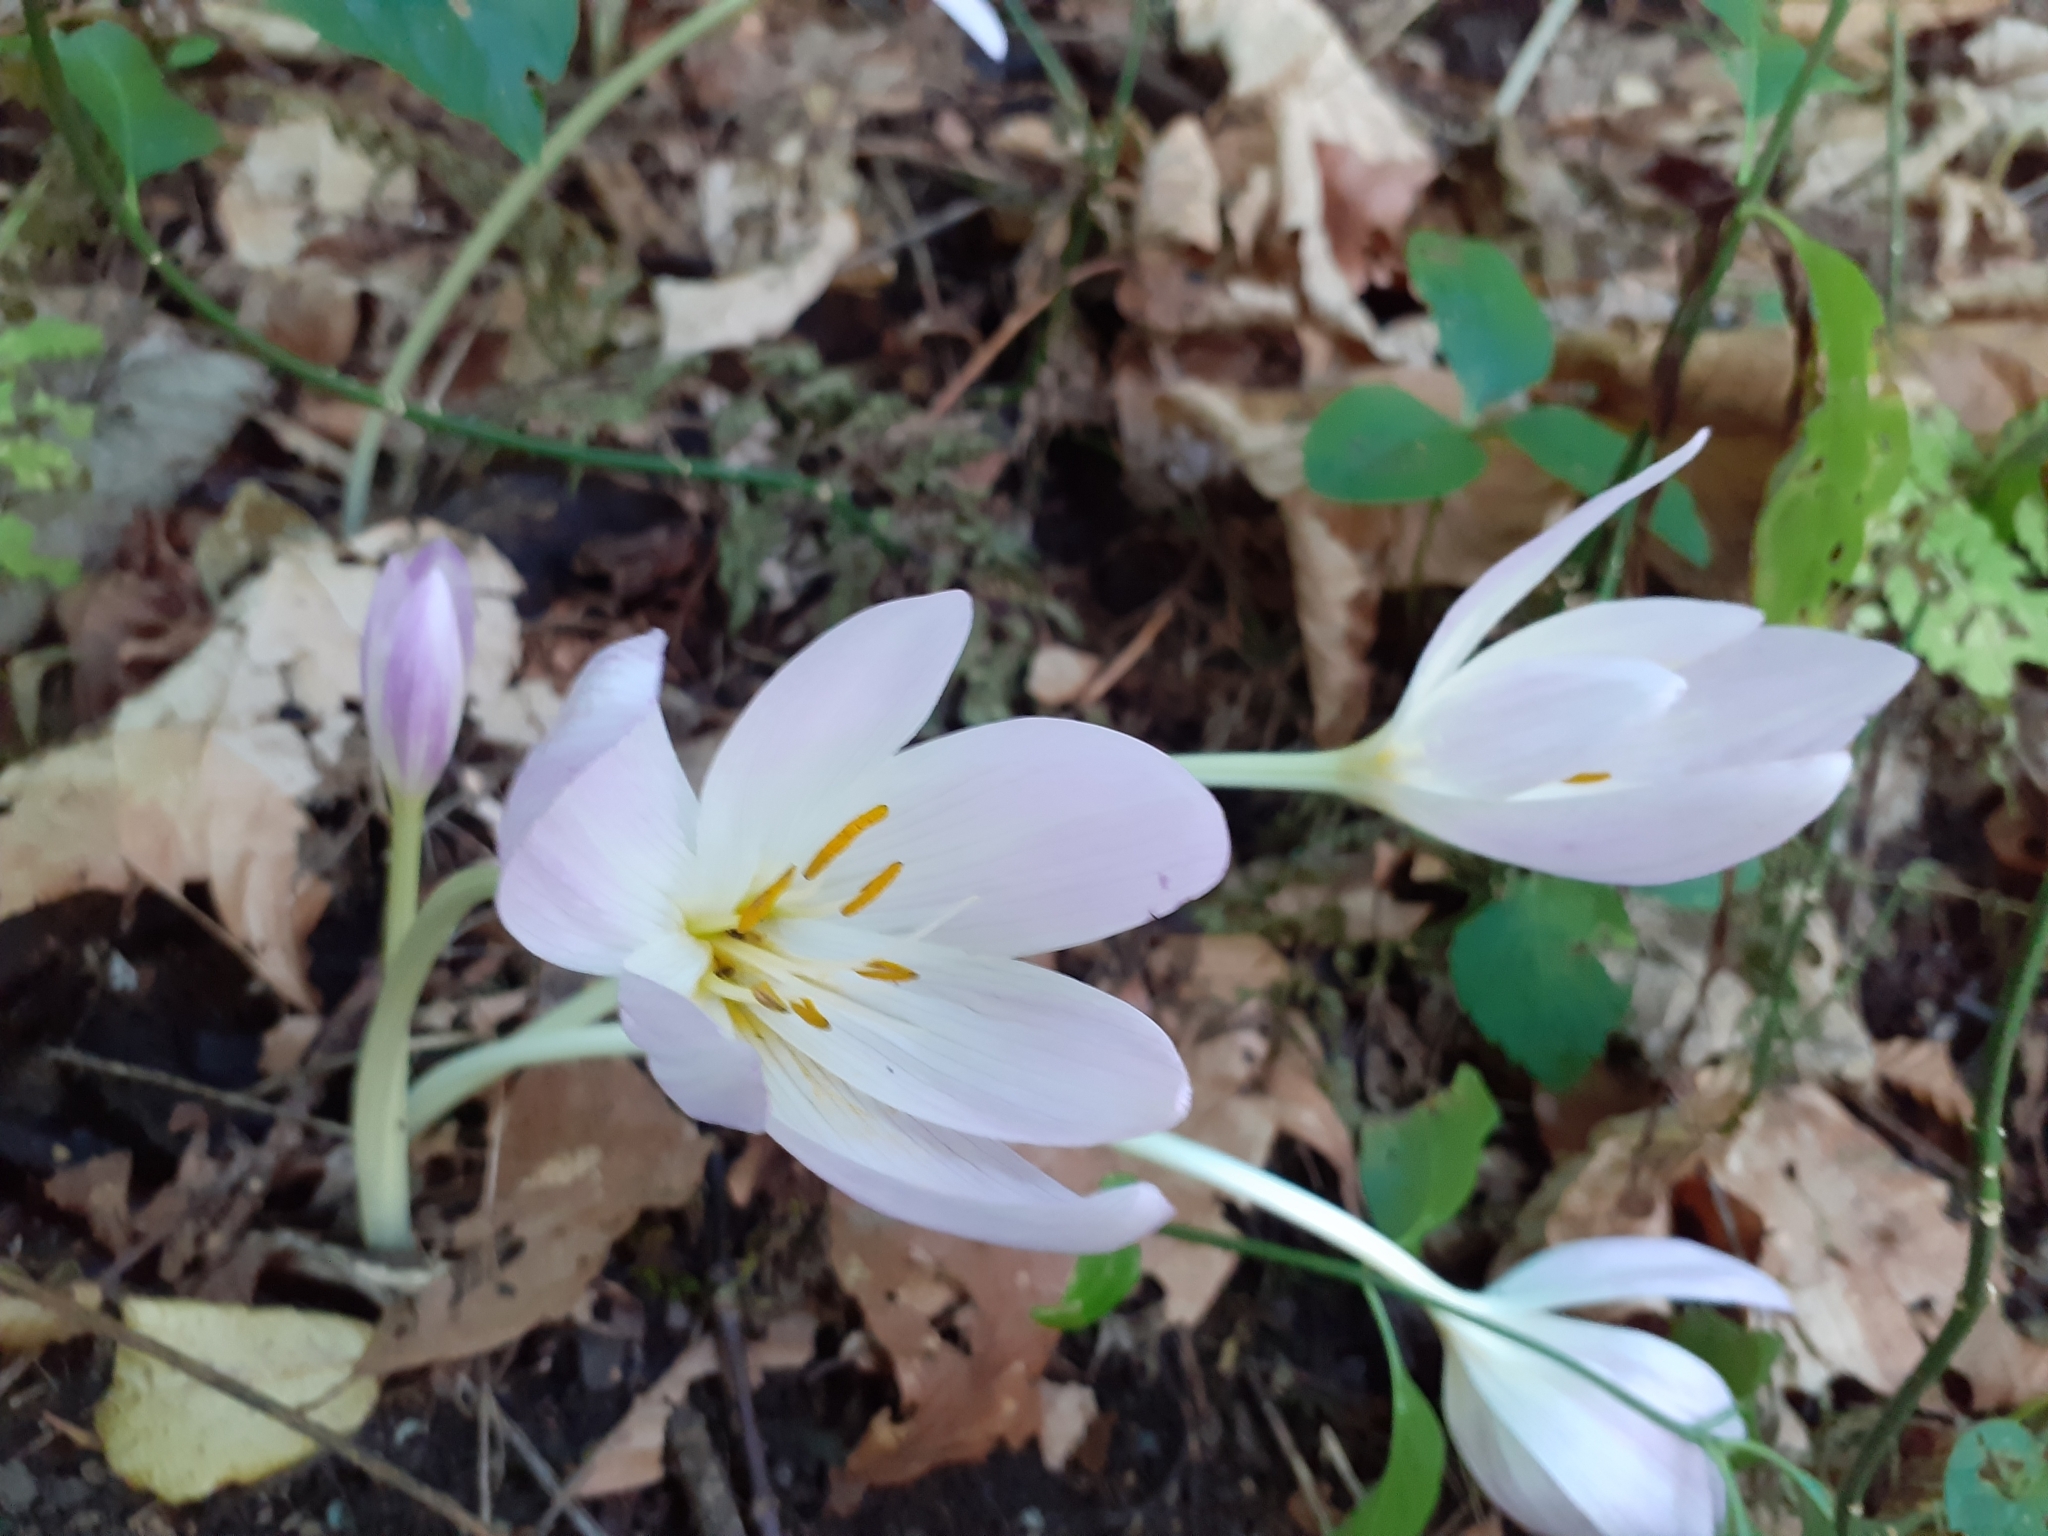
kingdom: Plantae
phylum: Tracheophyta
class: Liliopsida
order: Liliales
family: Colchicaceae
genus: Colchicum
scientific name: Colchicum speciosum
